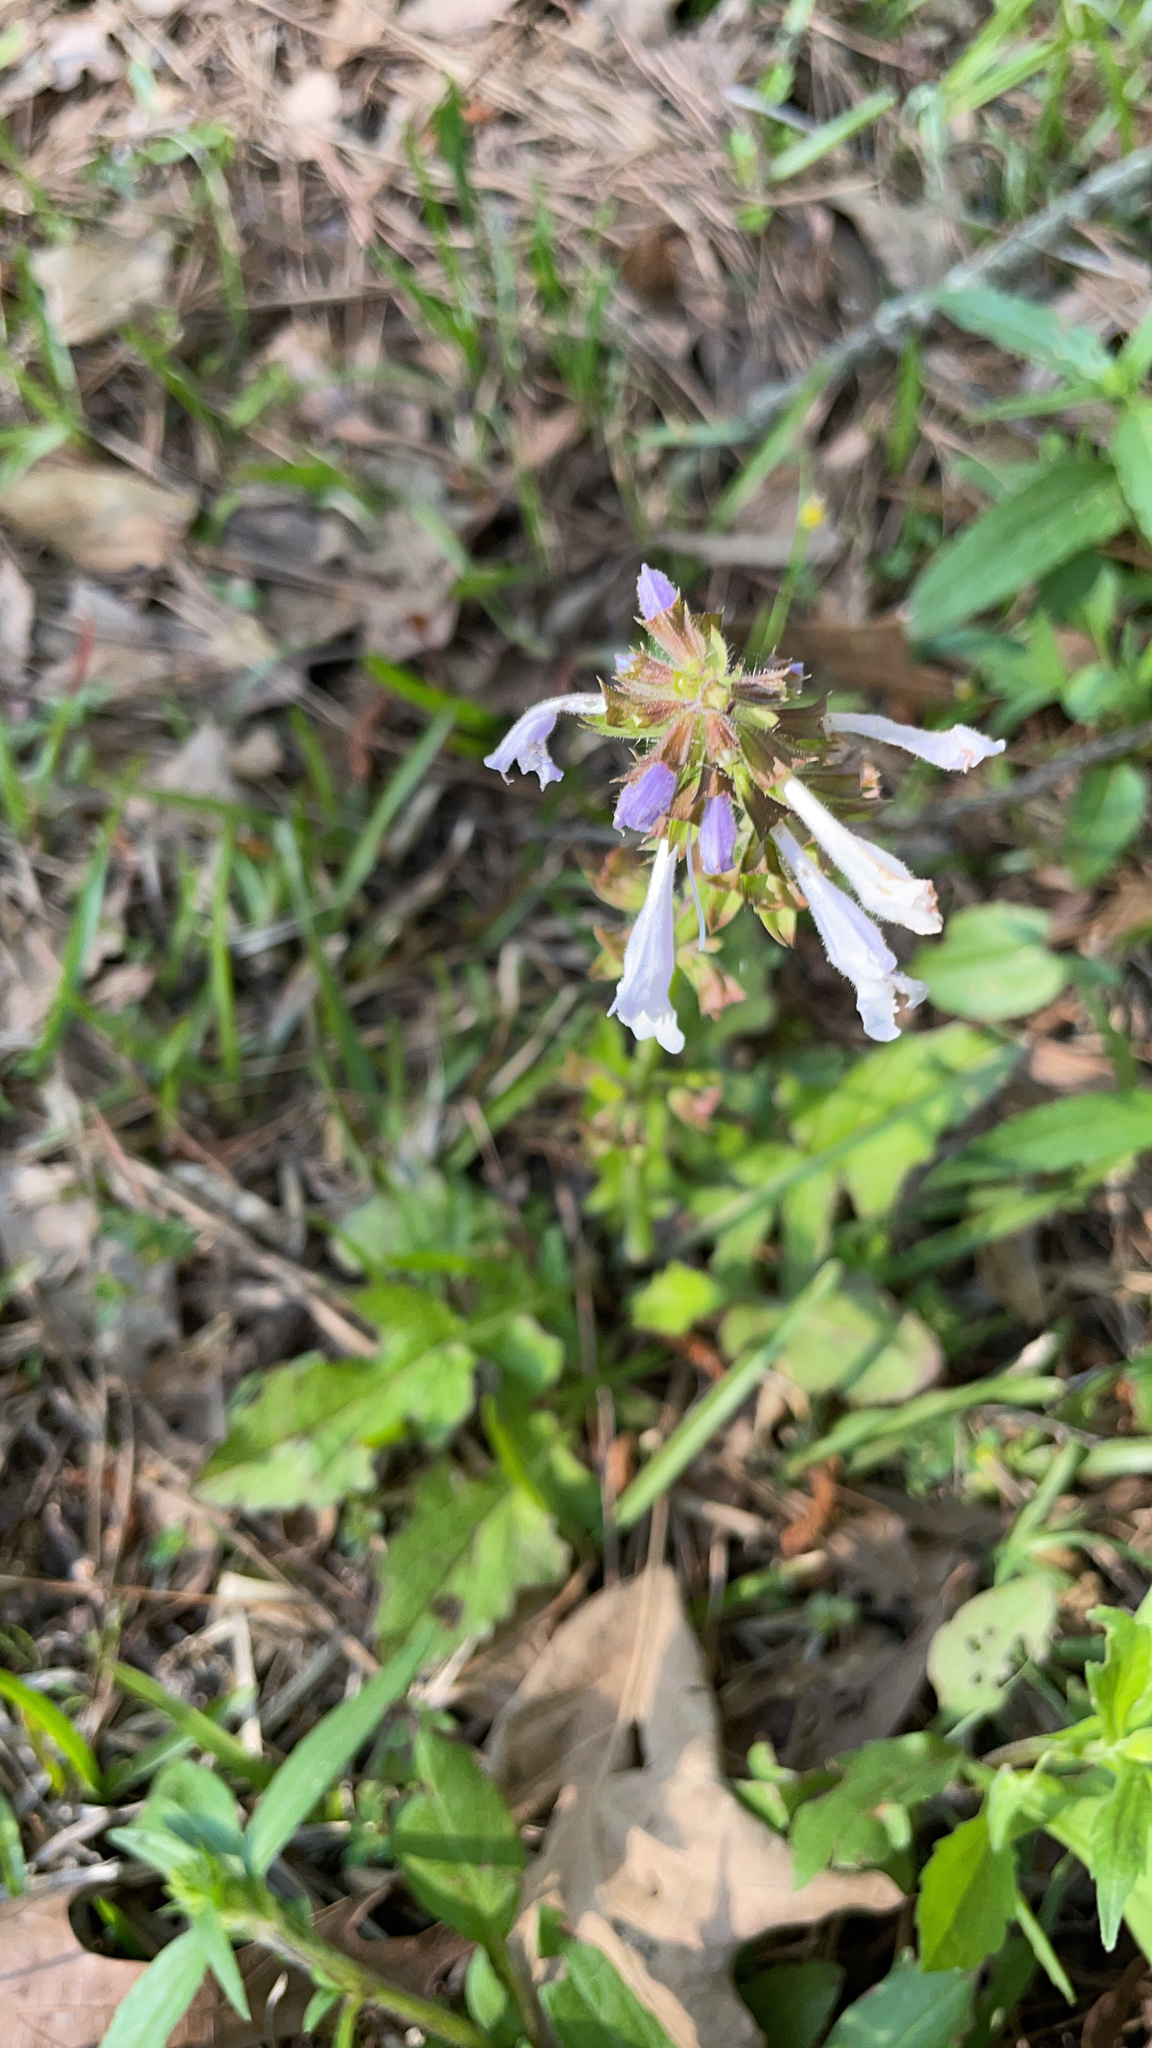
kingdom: Plantae
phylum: Tracheophyta
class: Magnoliopsida
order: Lamiales
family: Lamiaceae
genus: Salvia
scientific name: Salvia lyrata
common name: Cancerweed
